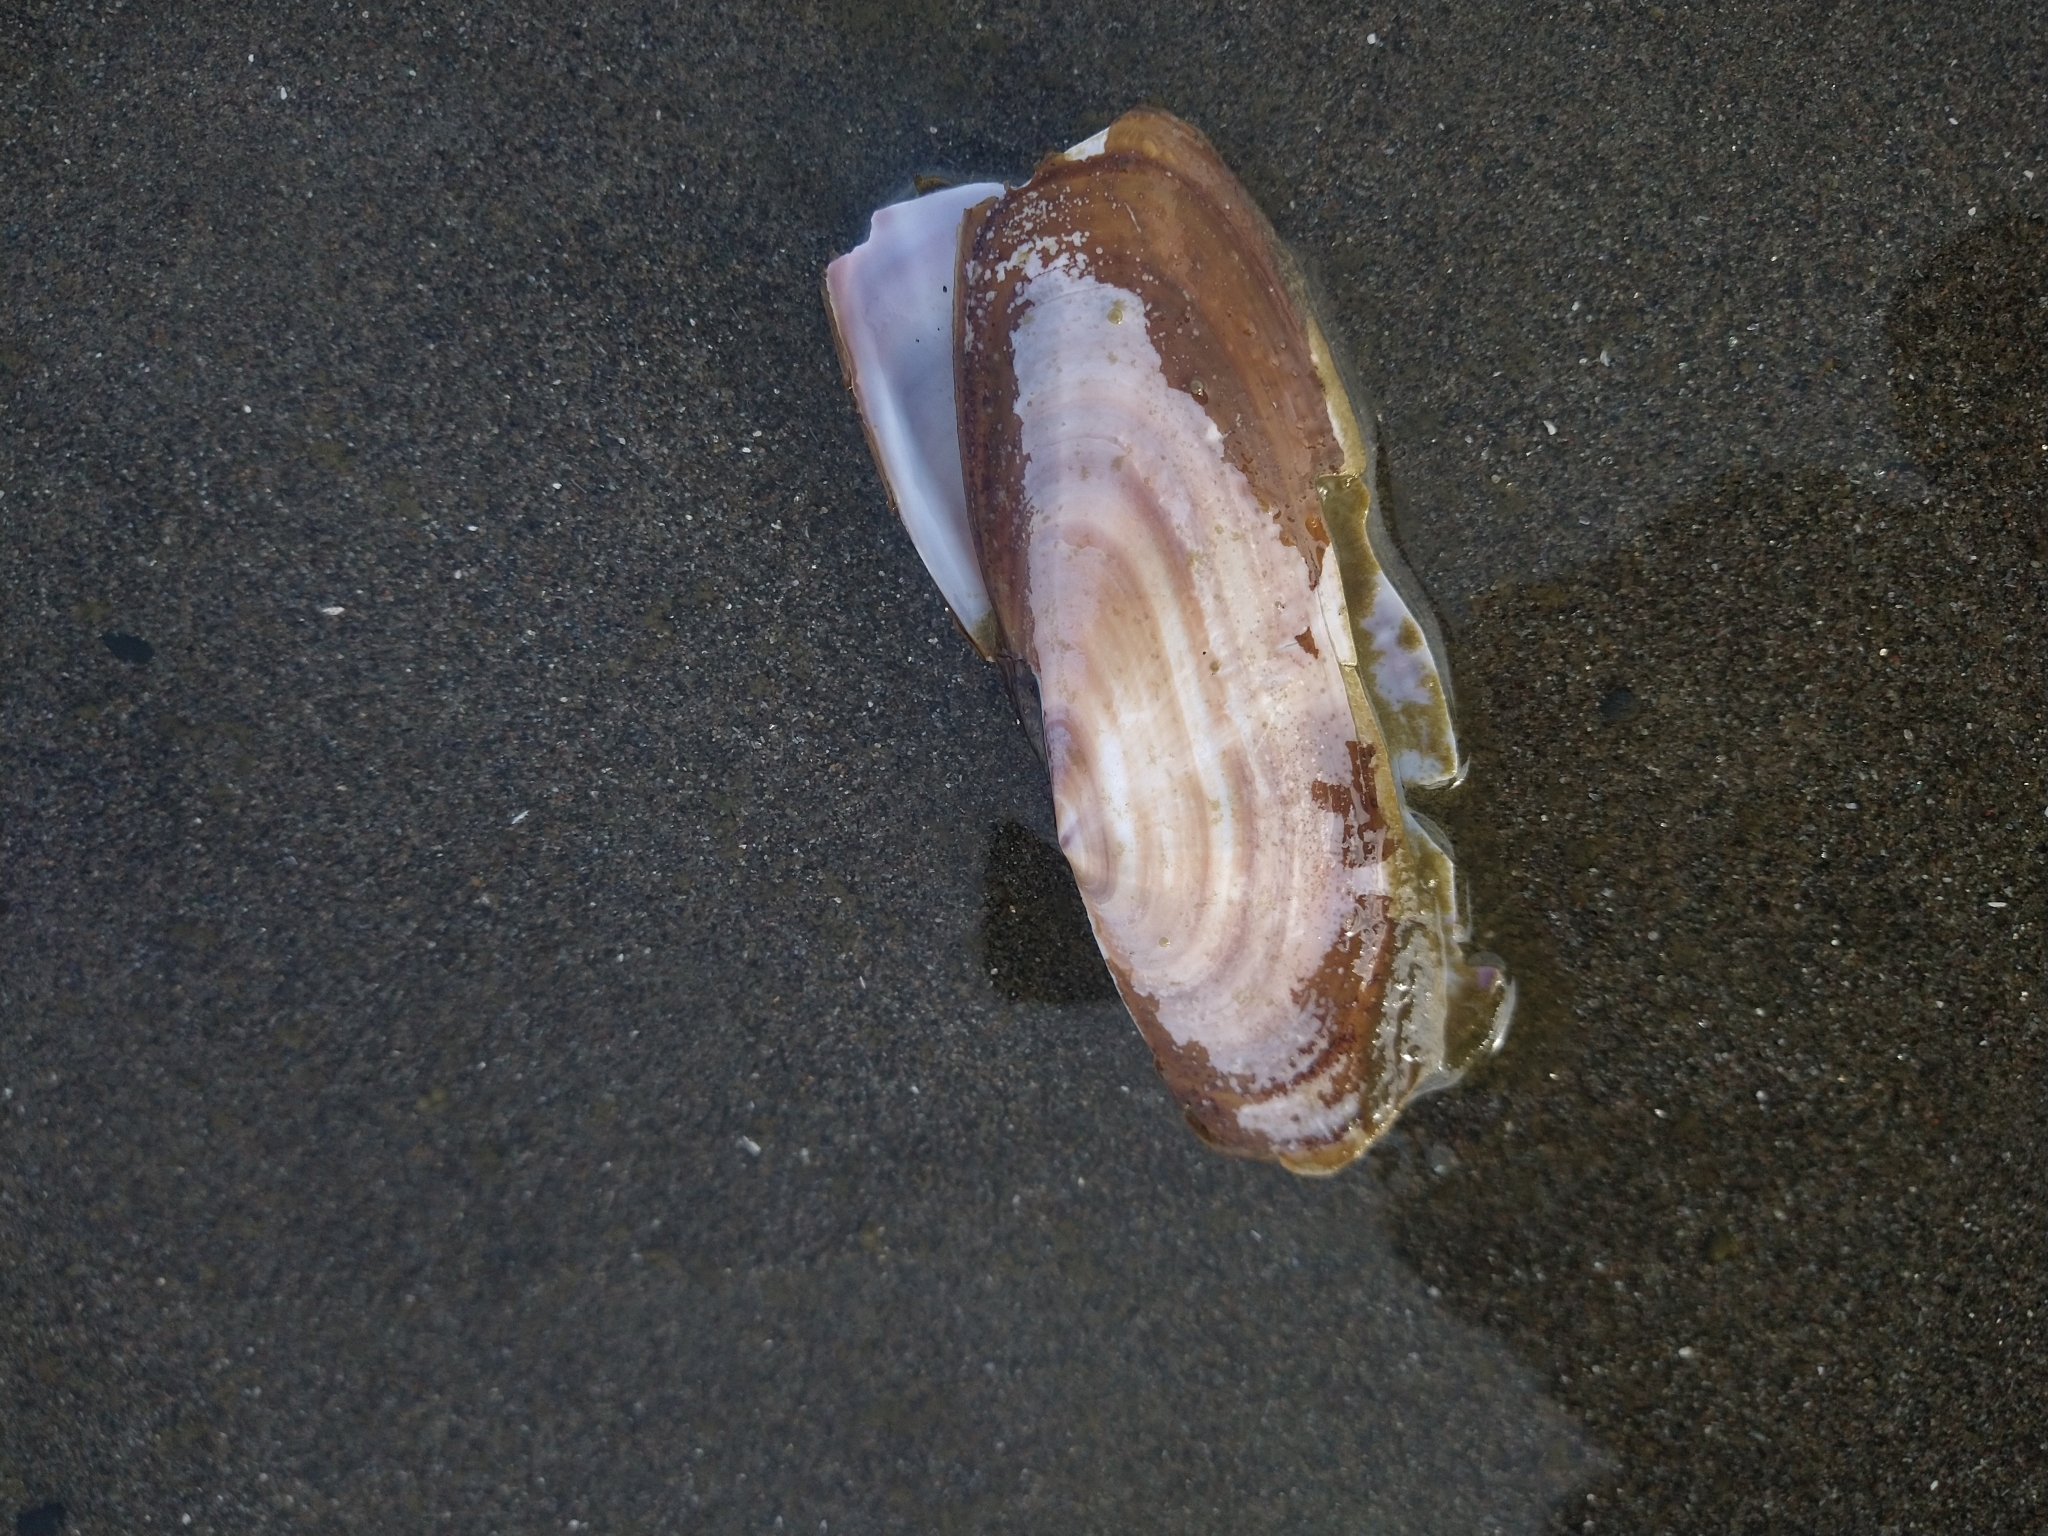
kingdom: Animalia
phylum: Mollusca
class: Bivalvia
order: Adapedonta
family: Pharidae
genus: Siliqua
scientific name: Siliqua patula
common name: Pacific razor clam
